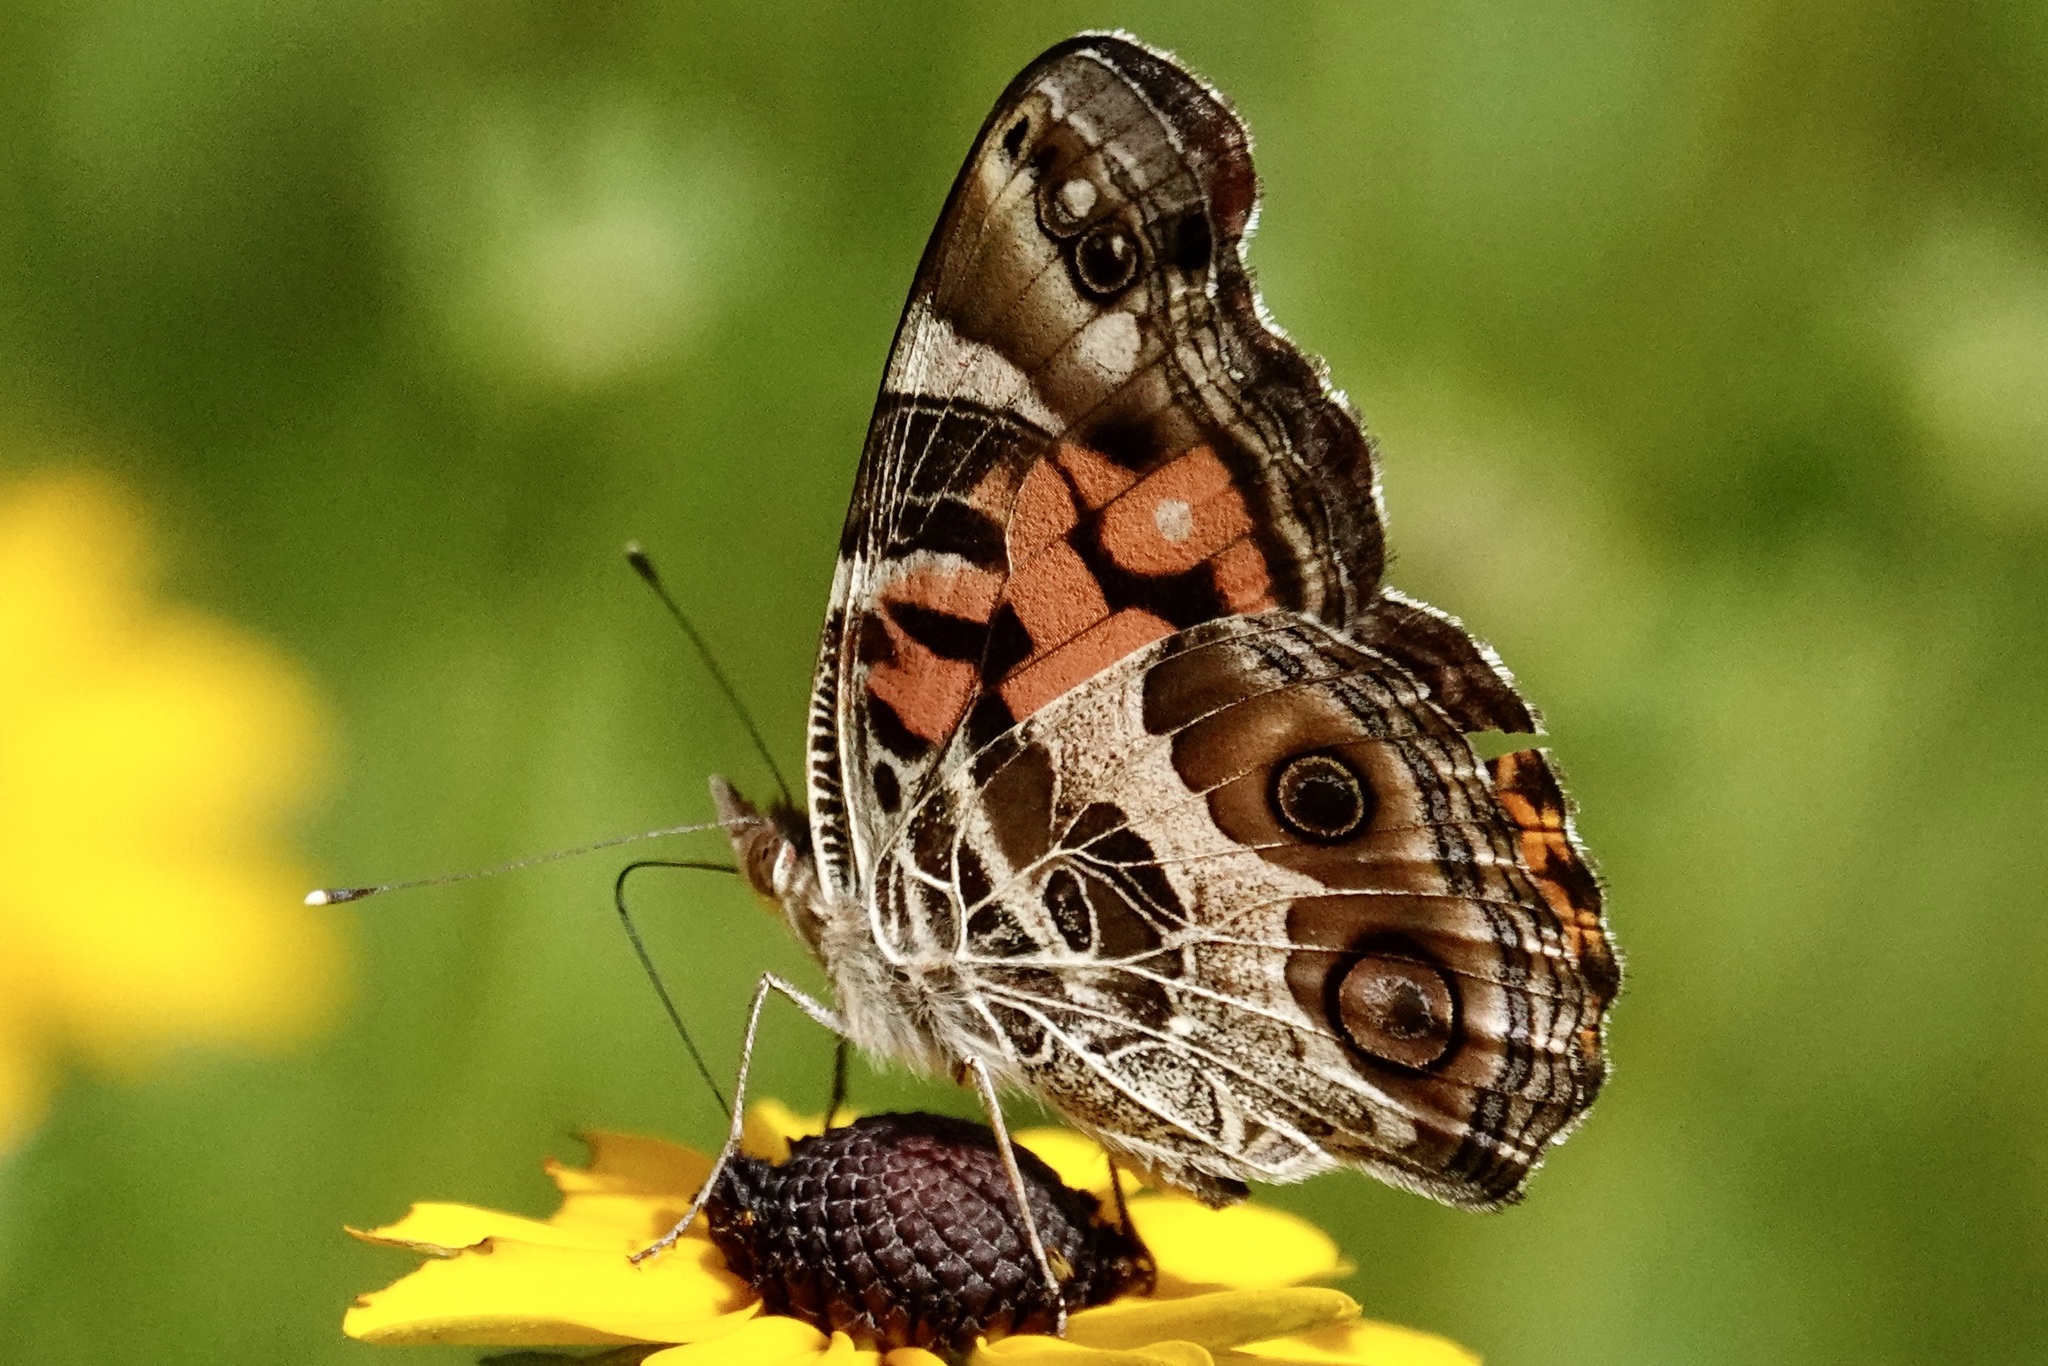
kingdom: Animalia
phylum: Arthropoda
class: Insecta
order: Lepidoptera
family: Nymphalidae
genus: Vanessa
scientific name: Vanessa virginiensis
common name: American lady
